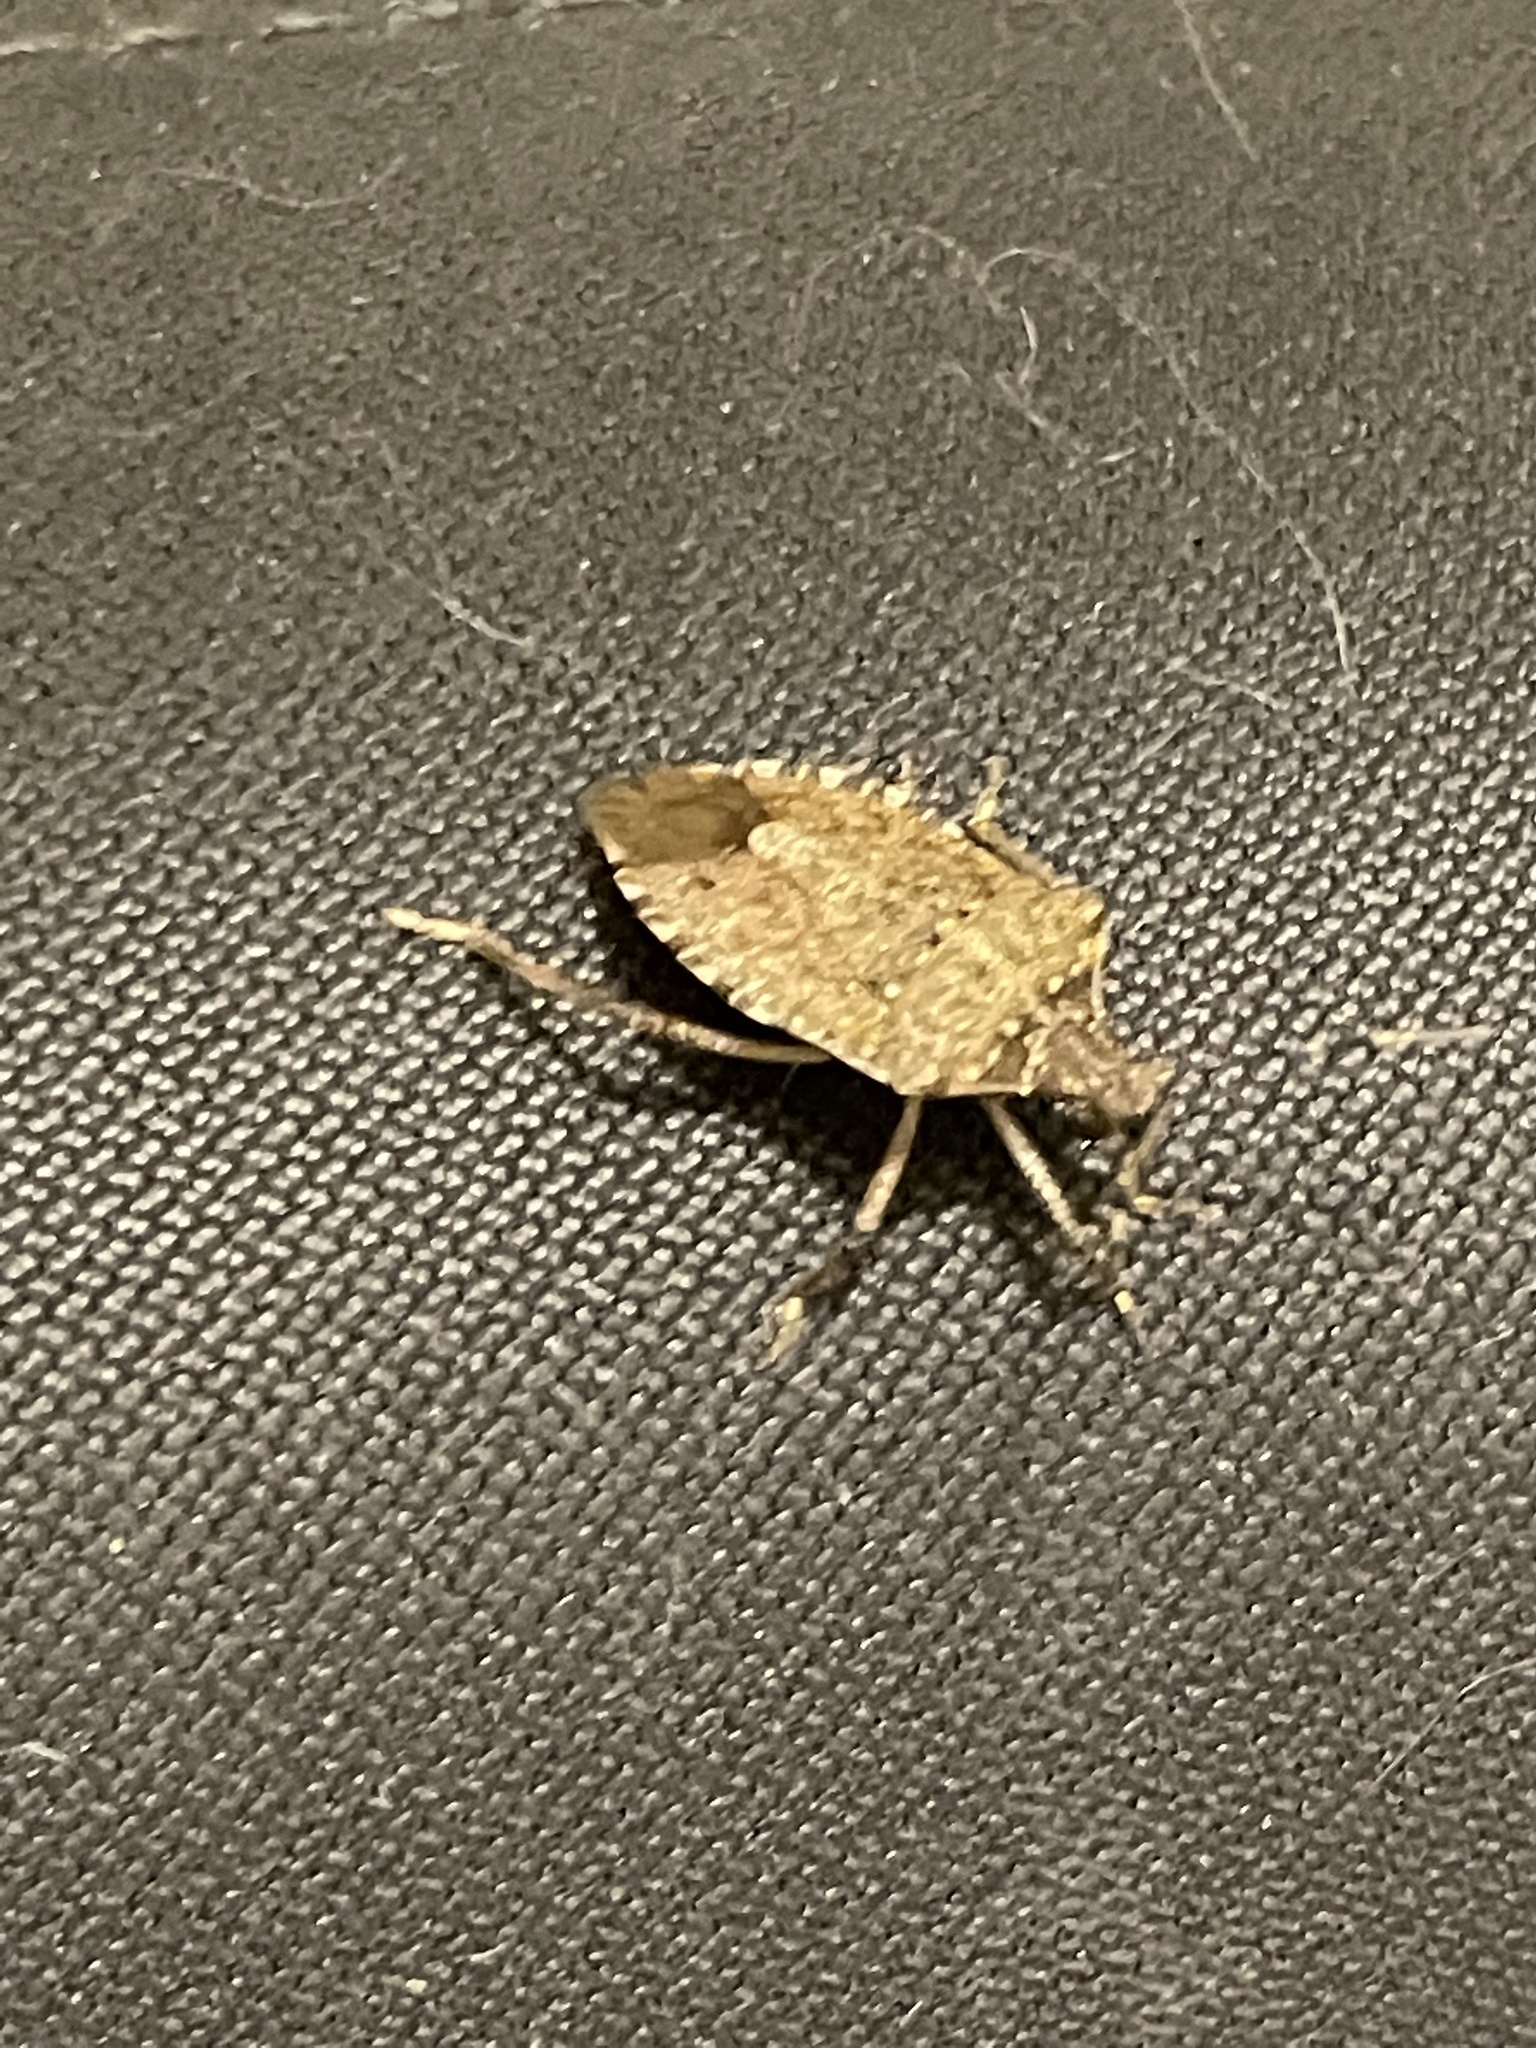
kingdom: Animalia
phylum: Arthropoda
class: Insecta
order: Hemiptera
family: Pentatomidae
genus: Halyomorpha
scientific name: Halyomorpha halys
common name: Brown marmorated stink bug
